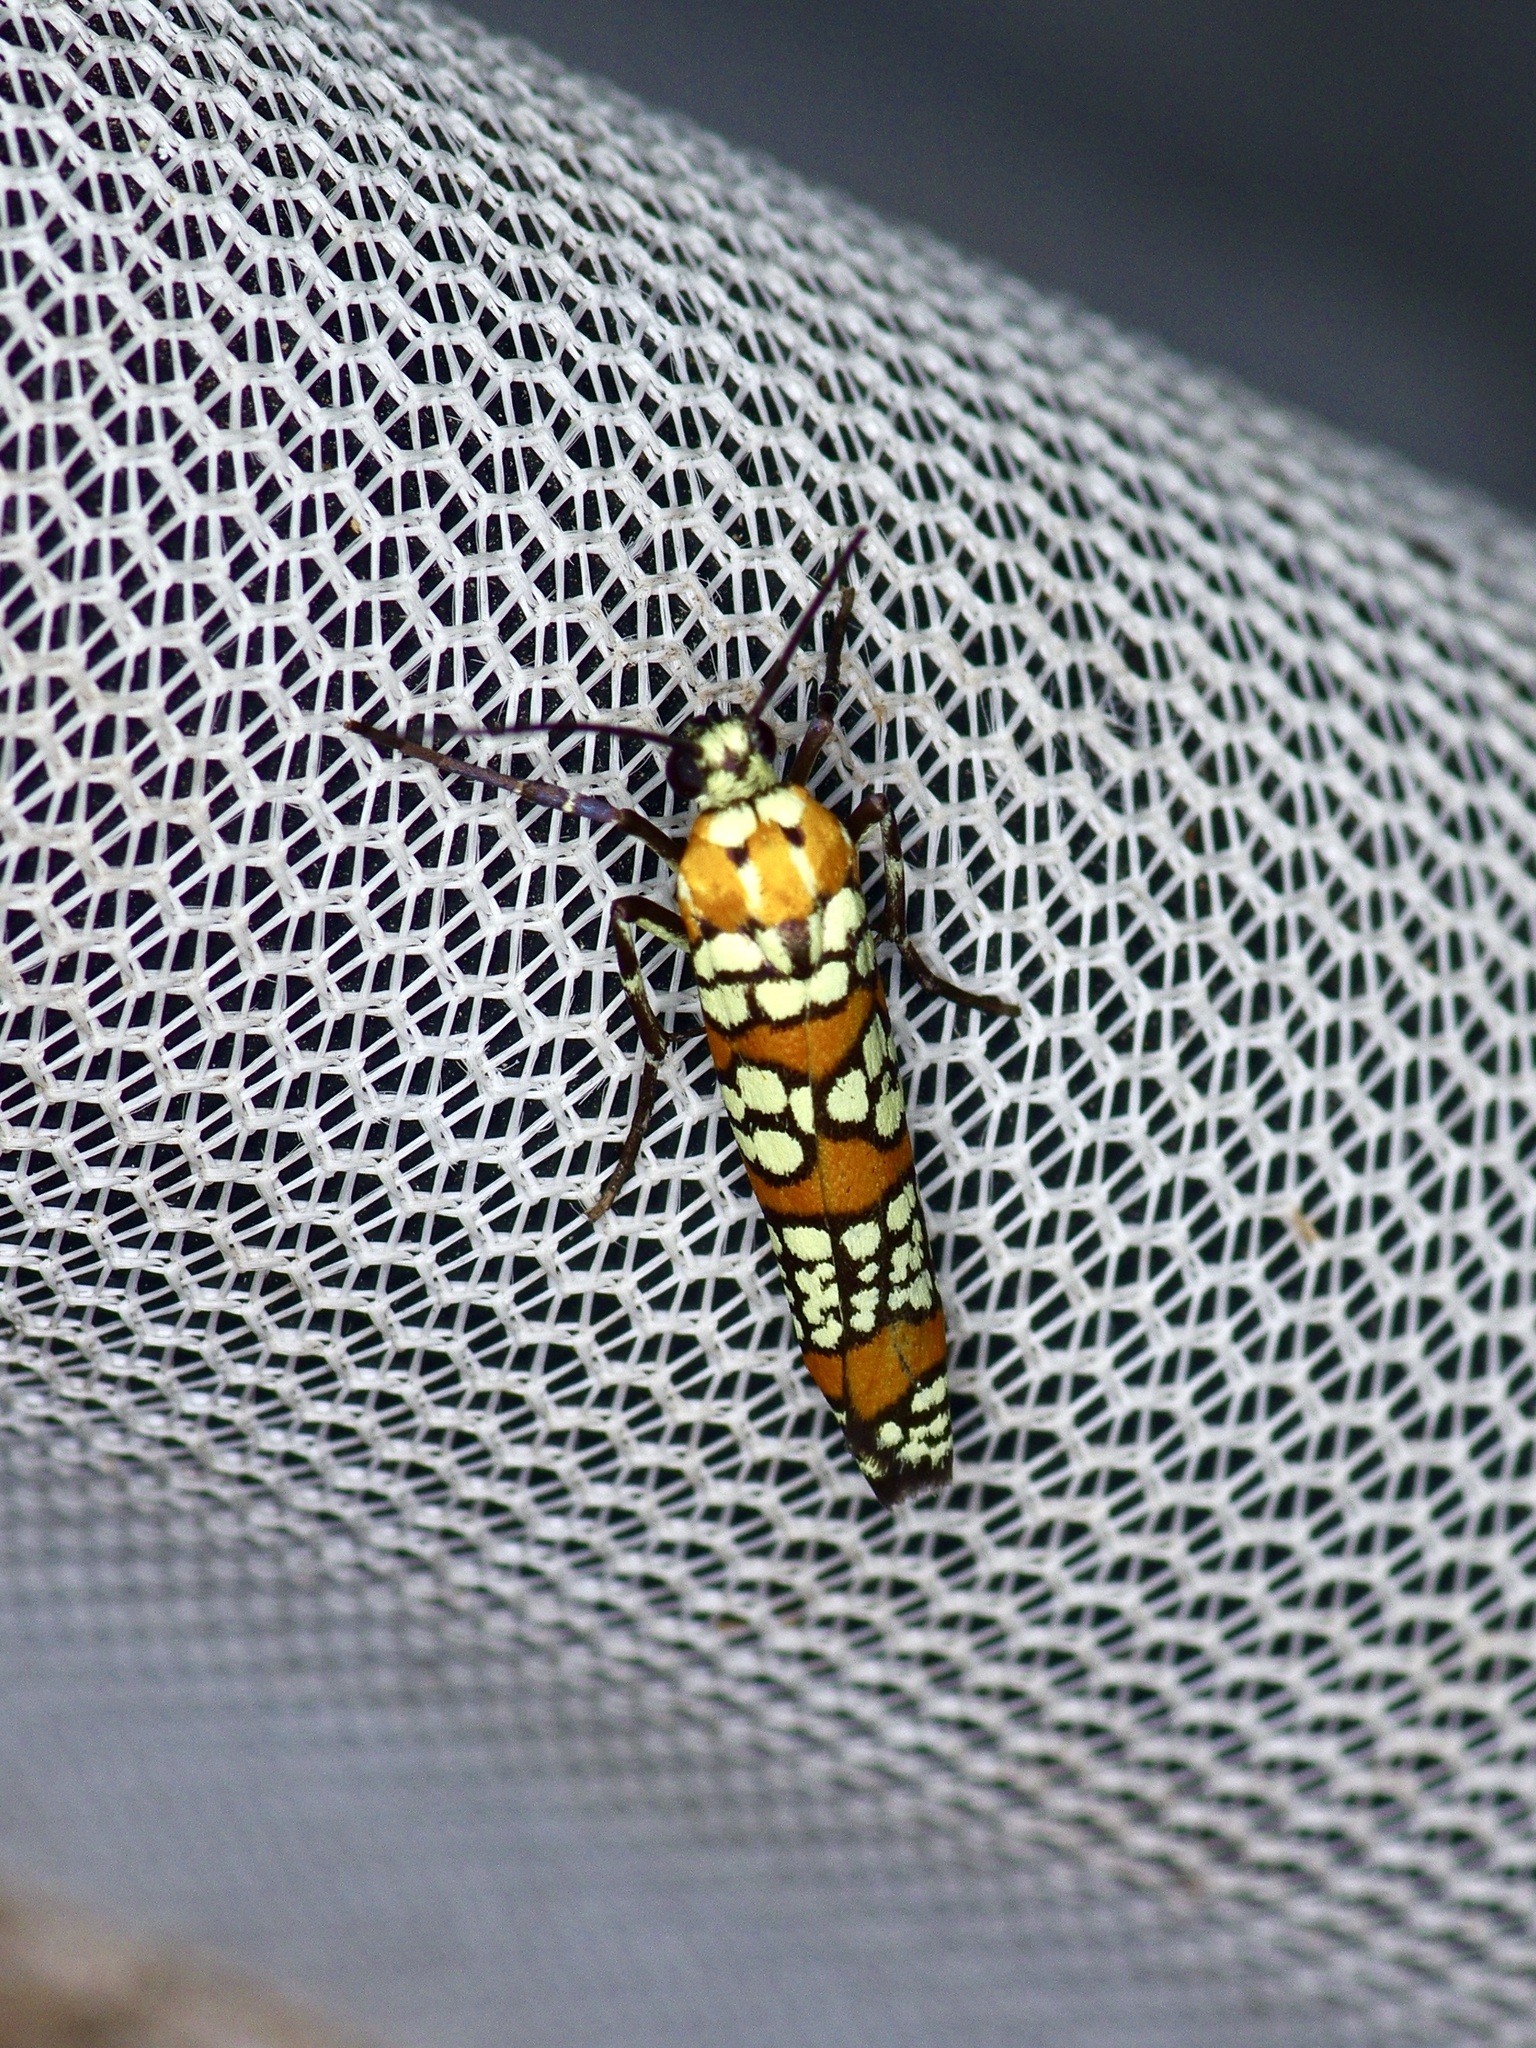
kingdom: Animalia
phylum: Arthropoda
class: Insecta
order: Lepidoptera
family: Attevidae
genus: Atteva
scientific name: Atteva punctella
